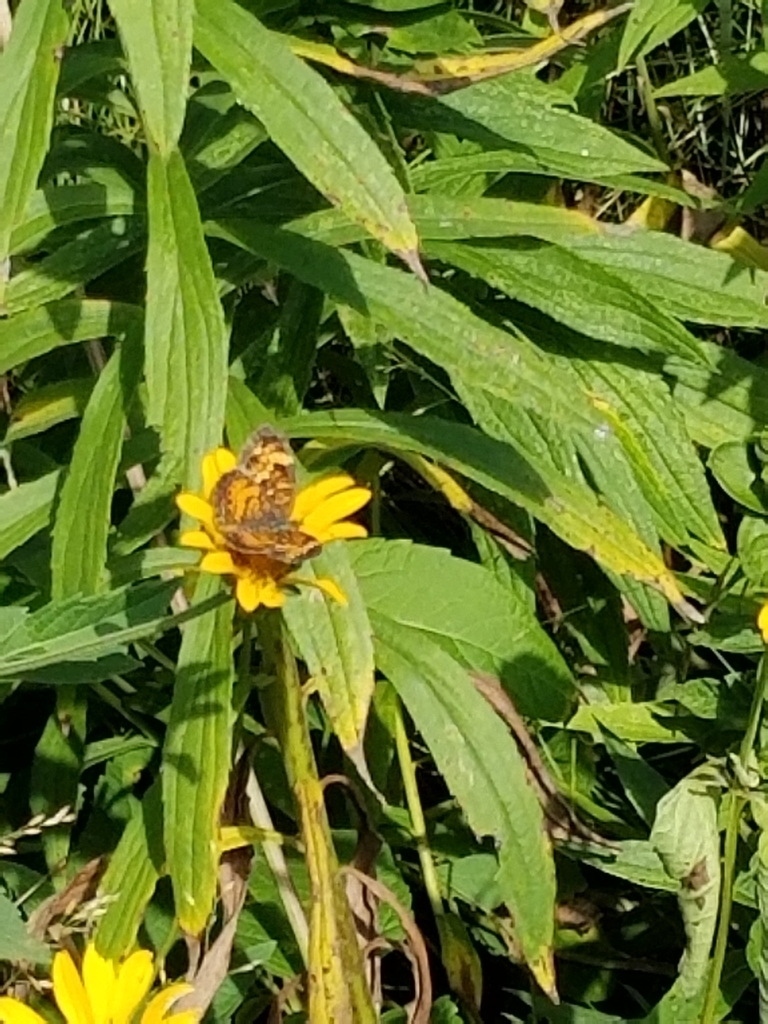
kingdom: Animalia
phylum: Arthropoda
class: Insecta
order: Lepidoptera
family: Nymphalidae
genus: Phyciodes
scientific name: Phyciodes tharos
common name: Pearl crescent
